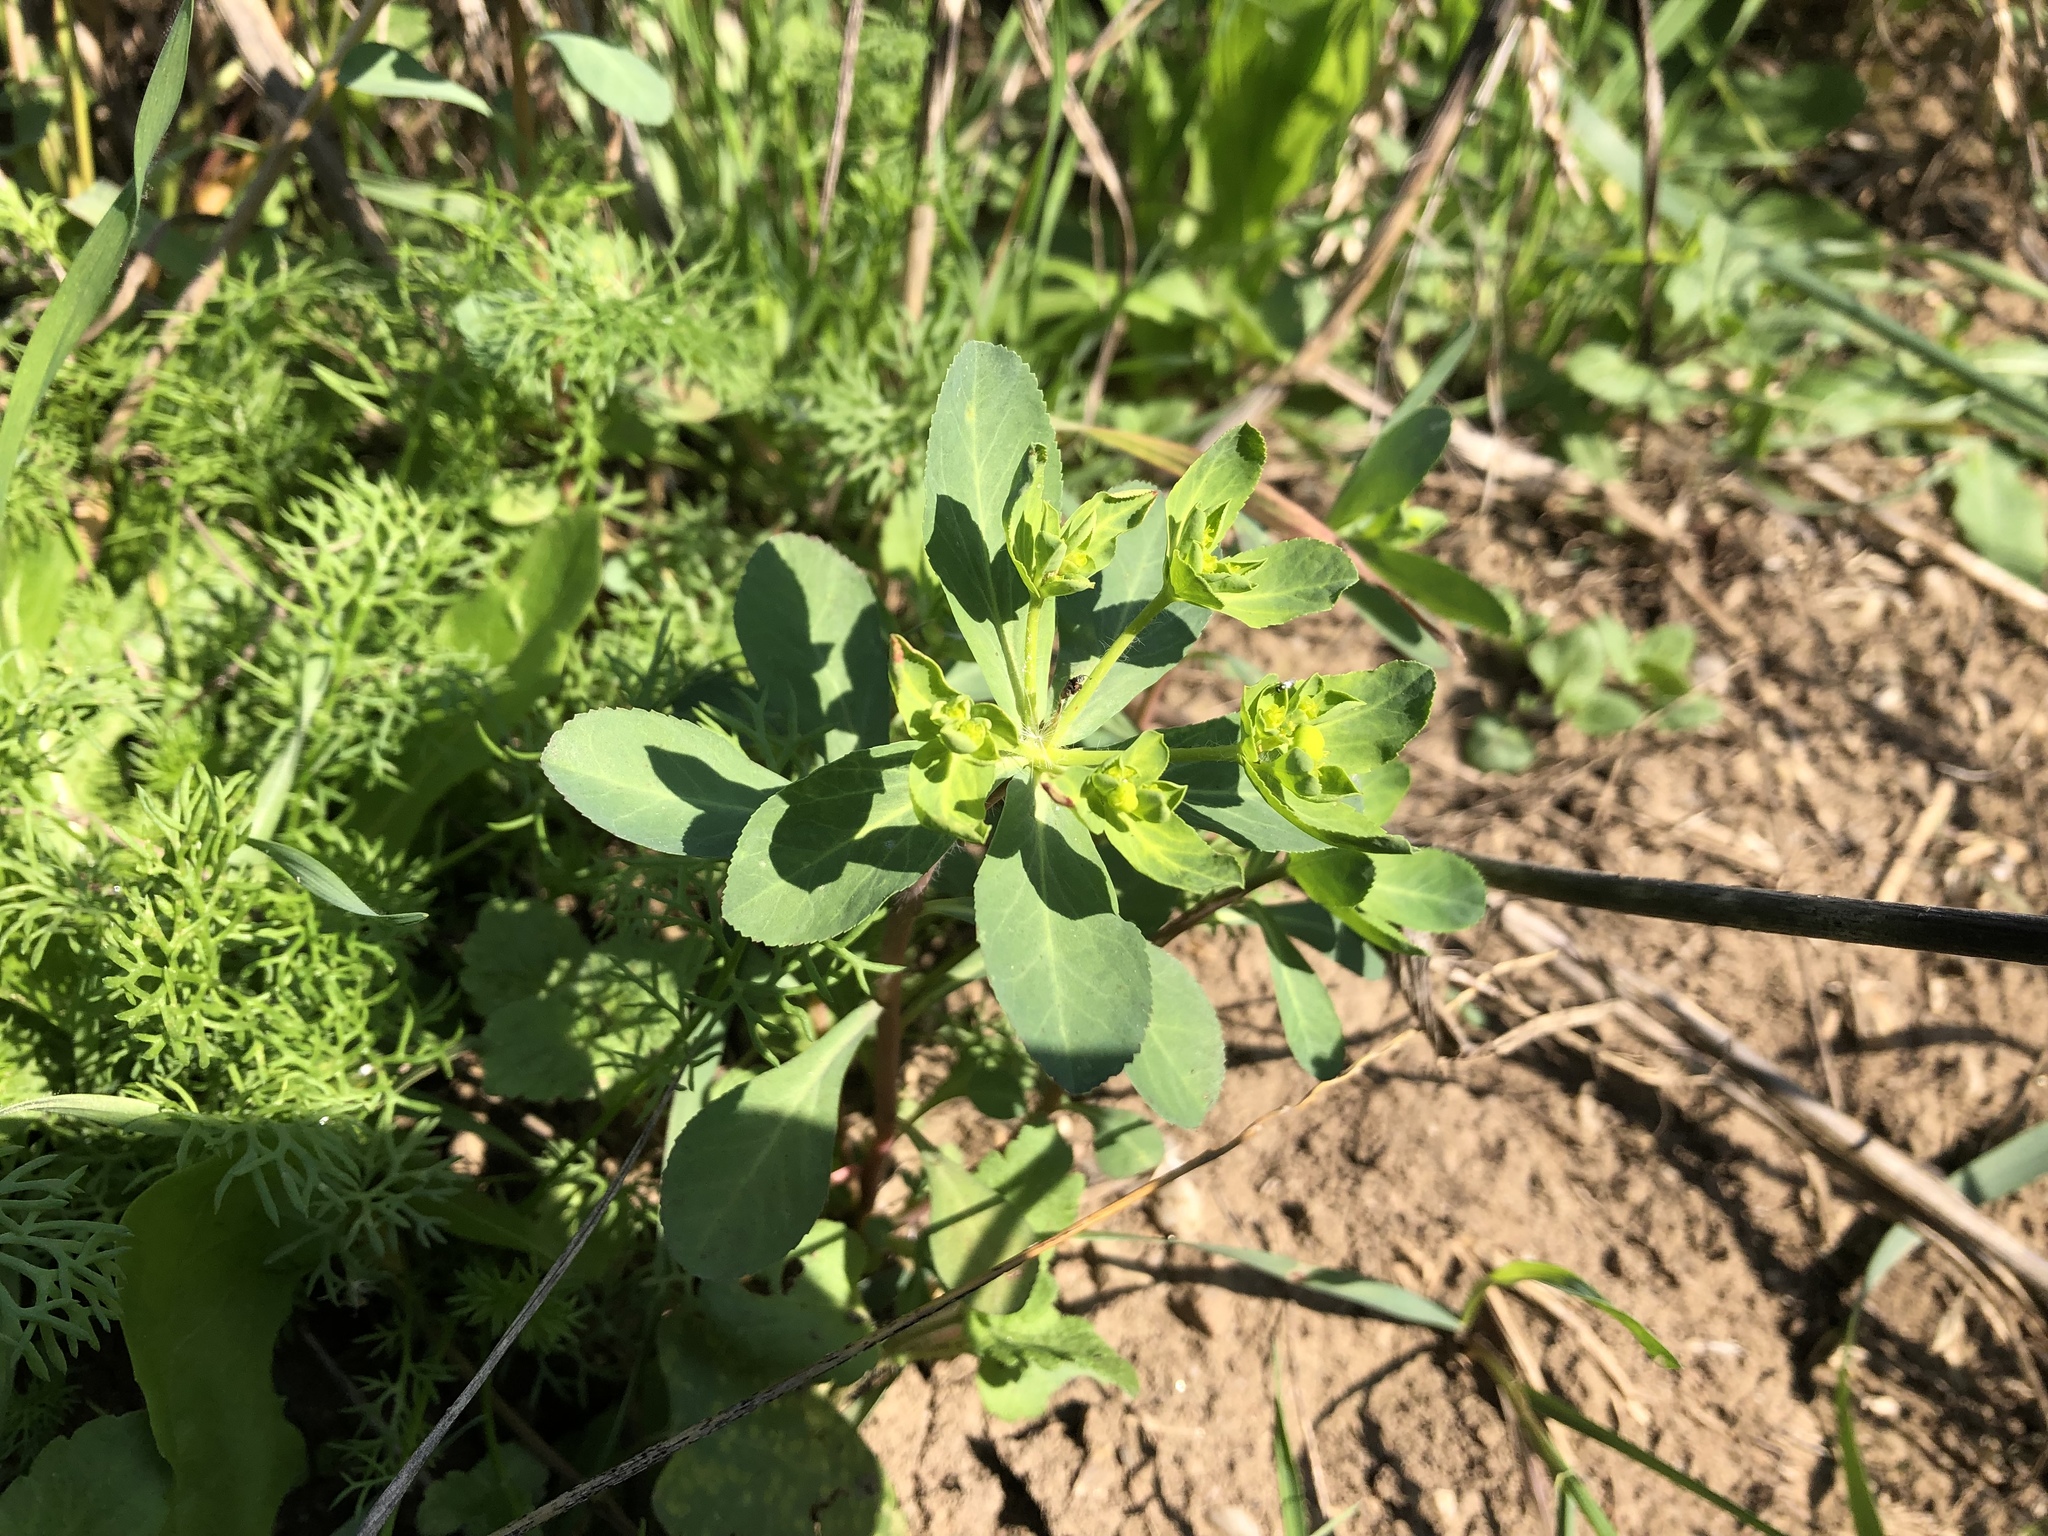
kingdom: Plantae
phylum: Tracheophyta
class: Magnoliopsida
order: Malpighiales
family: Euphorbiaceae
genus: Euphorbia
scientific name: Euphorbia helioscopia
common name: Sun spurge
